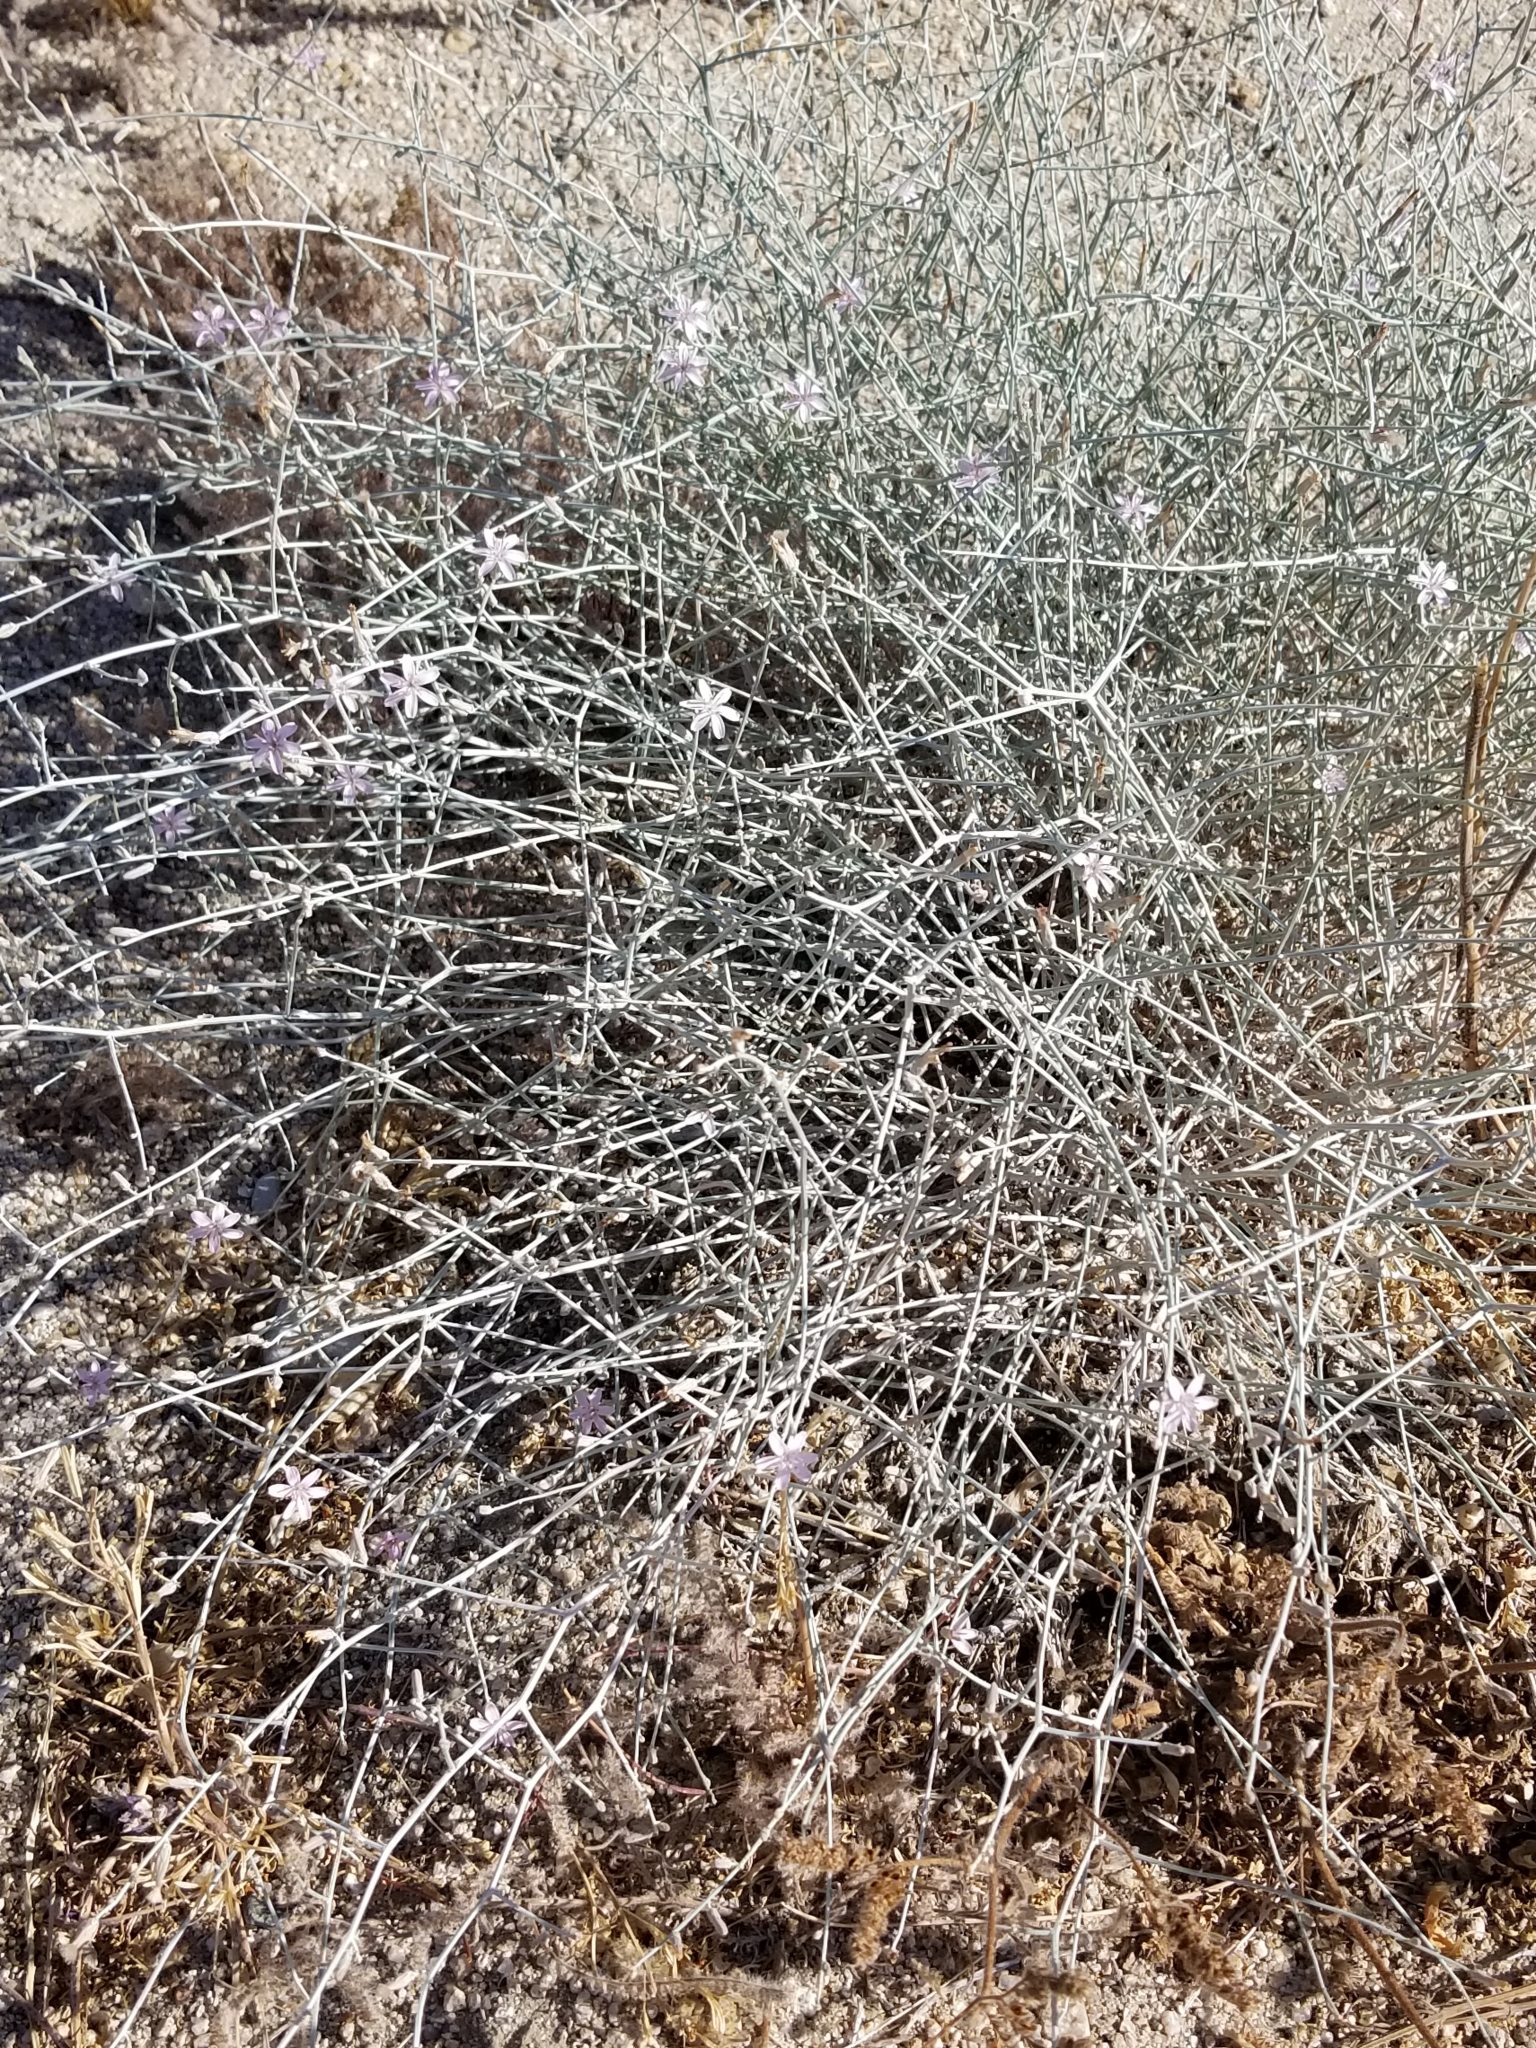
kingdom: Plantae
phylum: Tracheophyta
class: Magnoliopsida
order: Asterales
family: Asteraceae
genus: Stephanomeria
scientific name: Stephanomeria pauciflora
